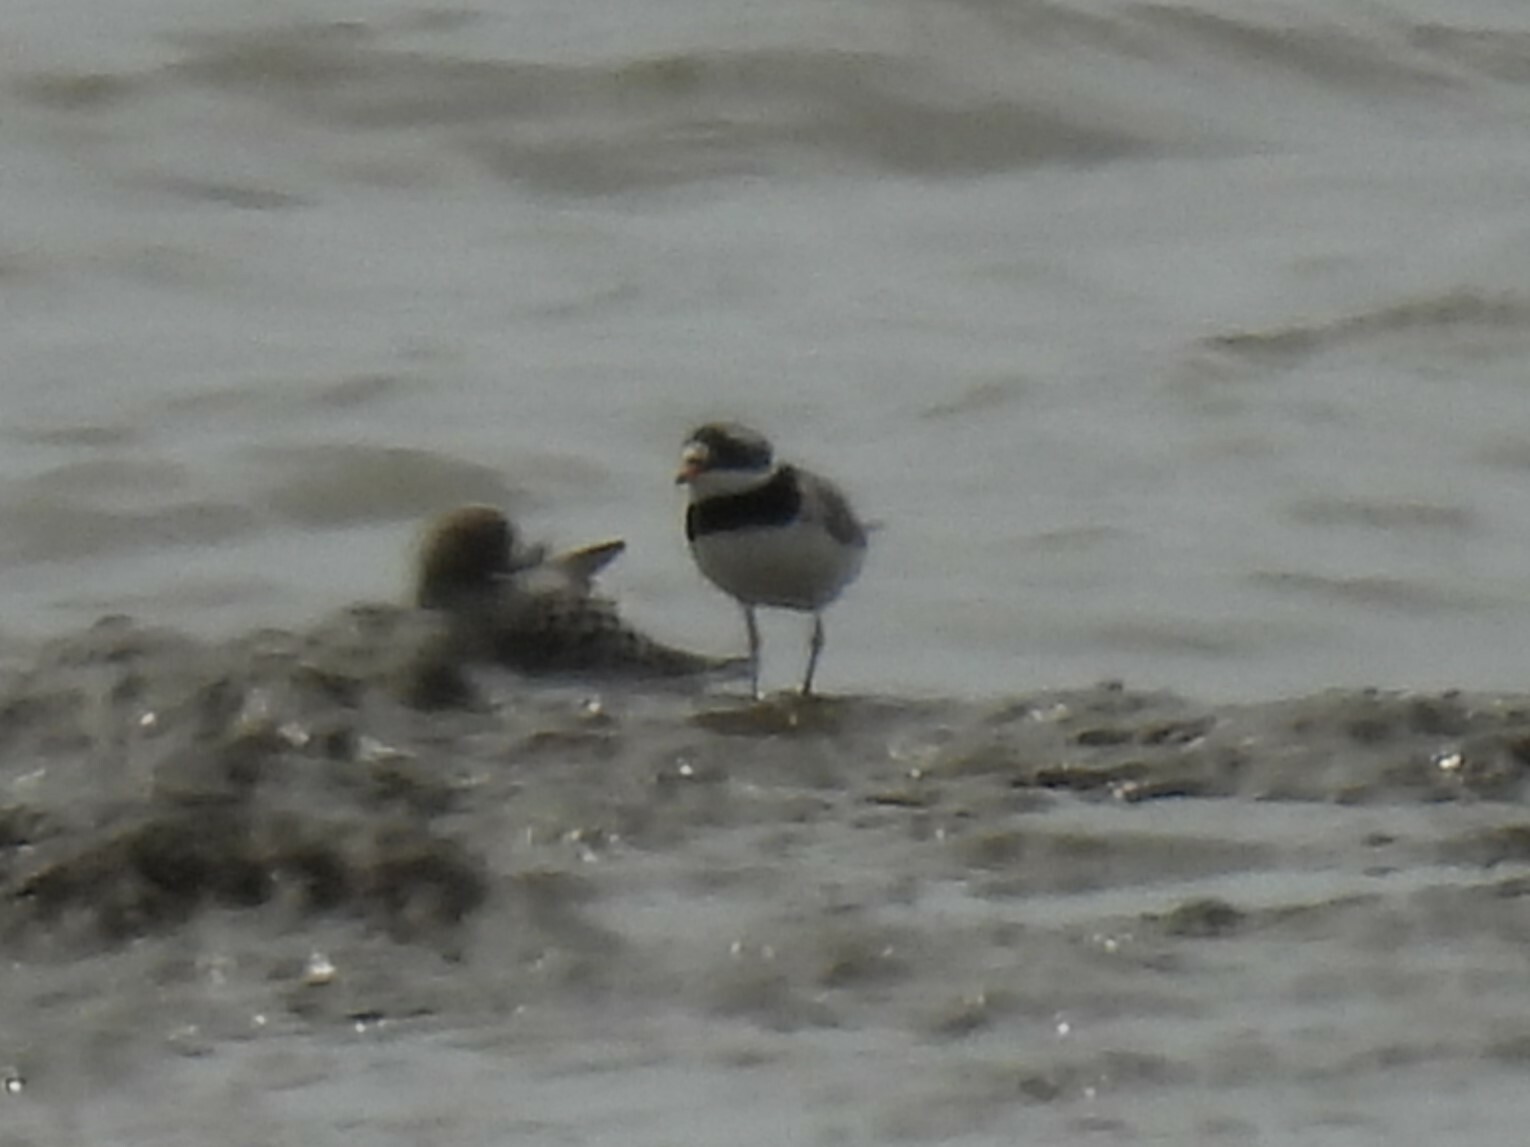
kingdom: Animalia
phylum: Chordata
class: Aves
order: Charadriiformes
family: Charadriidae
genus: Charadrius
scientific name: Charadrius hiaticula
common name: Common ringed plover
